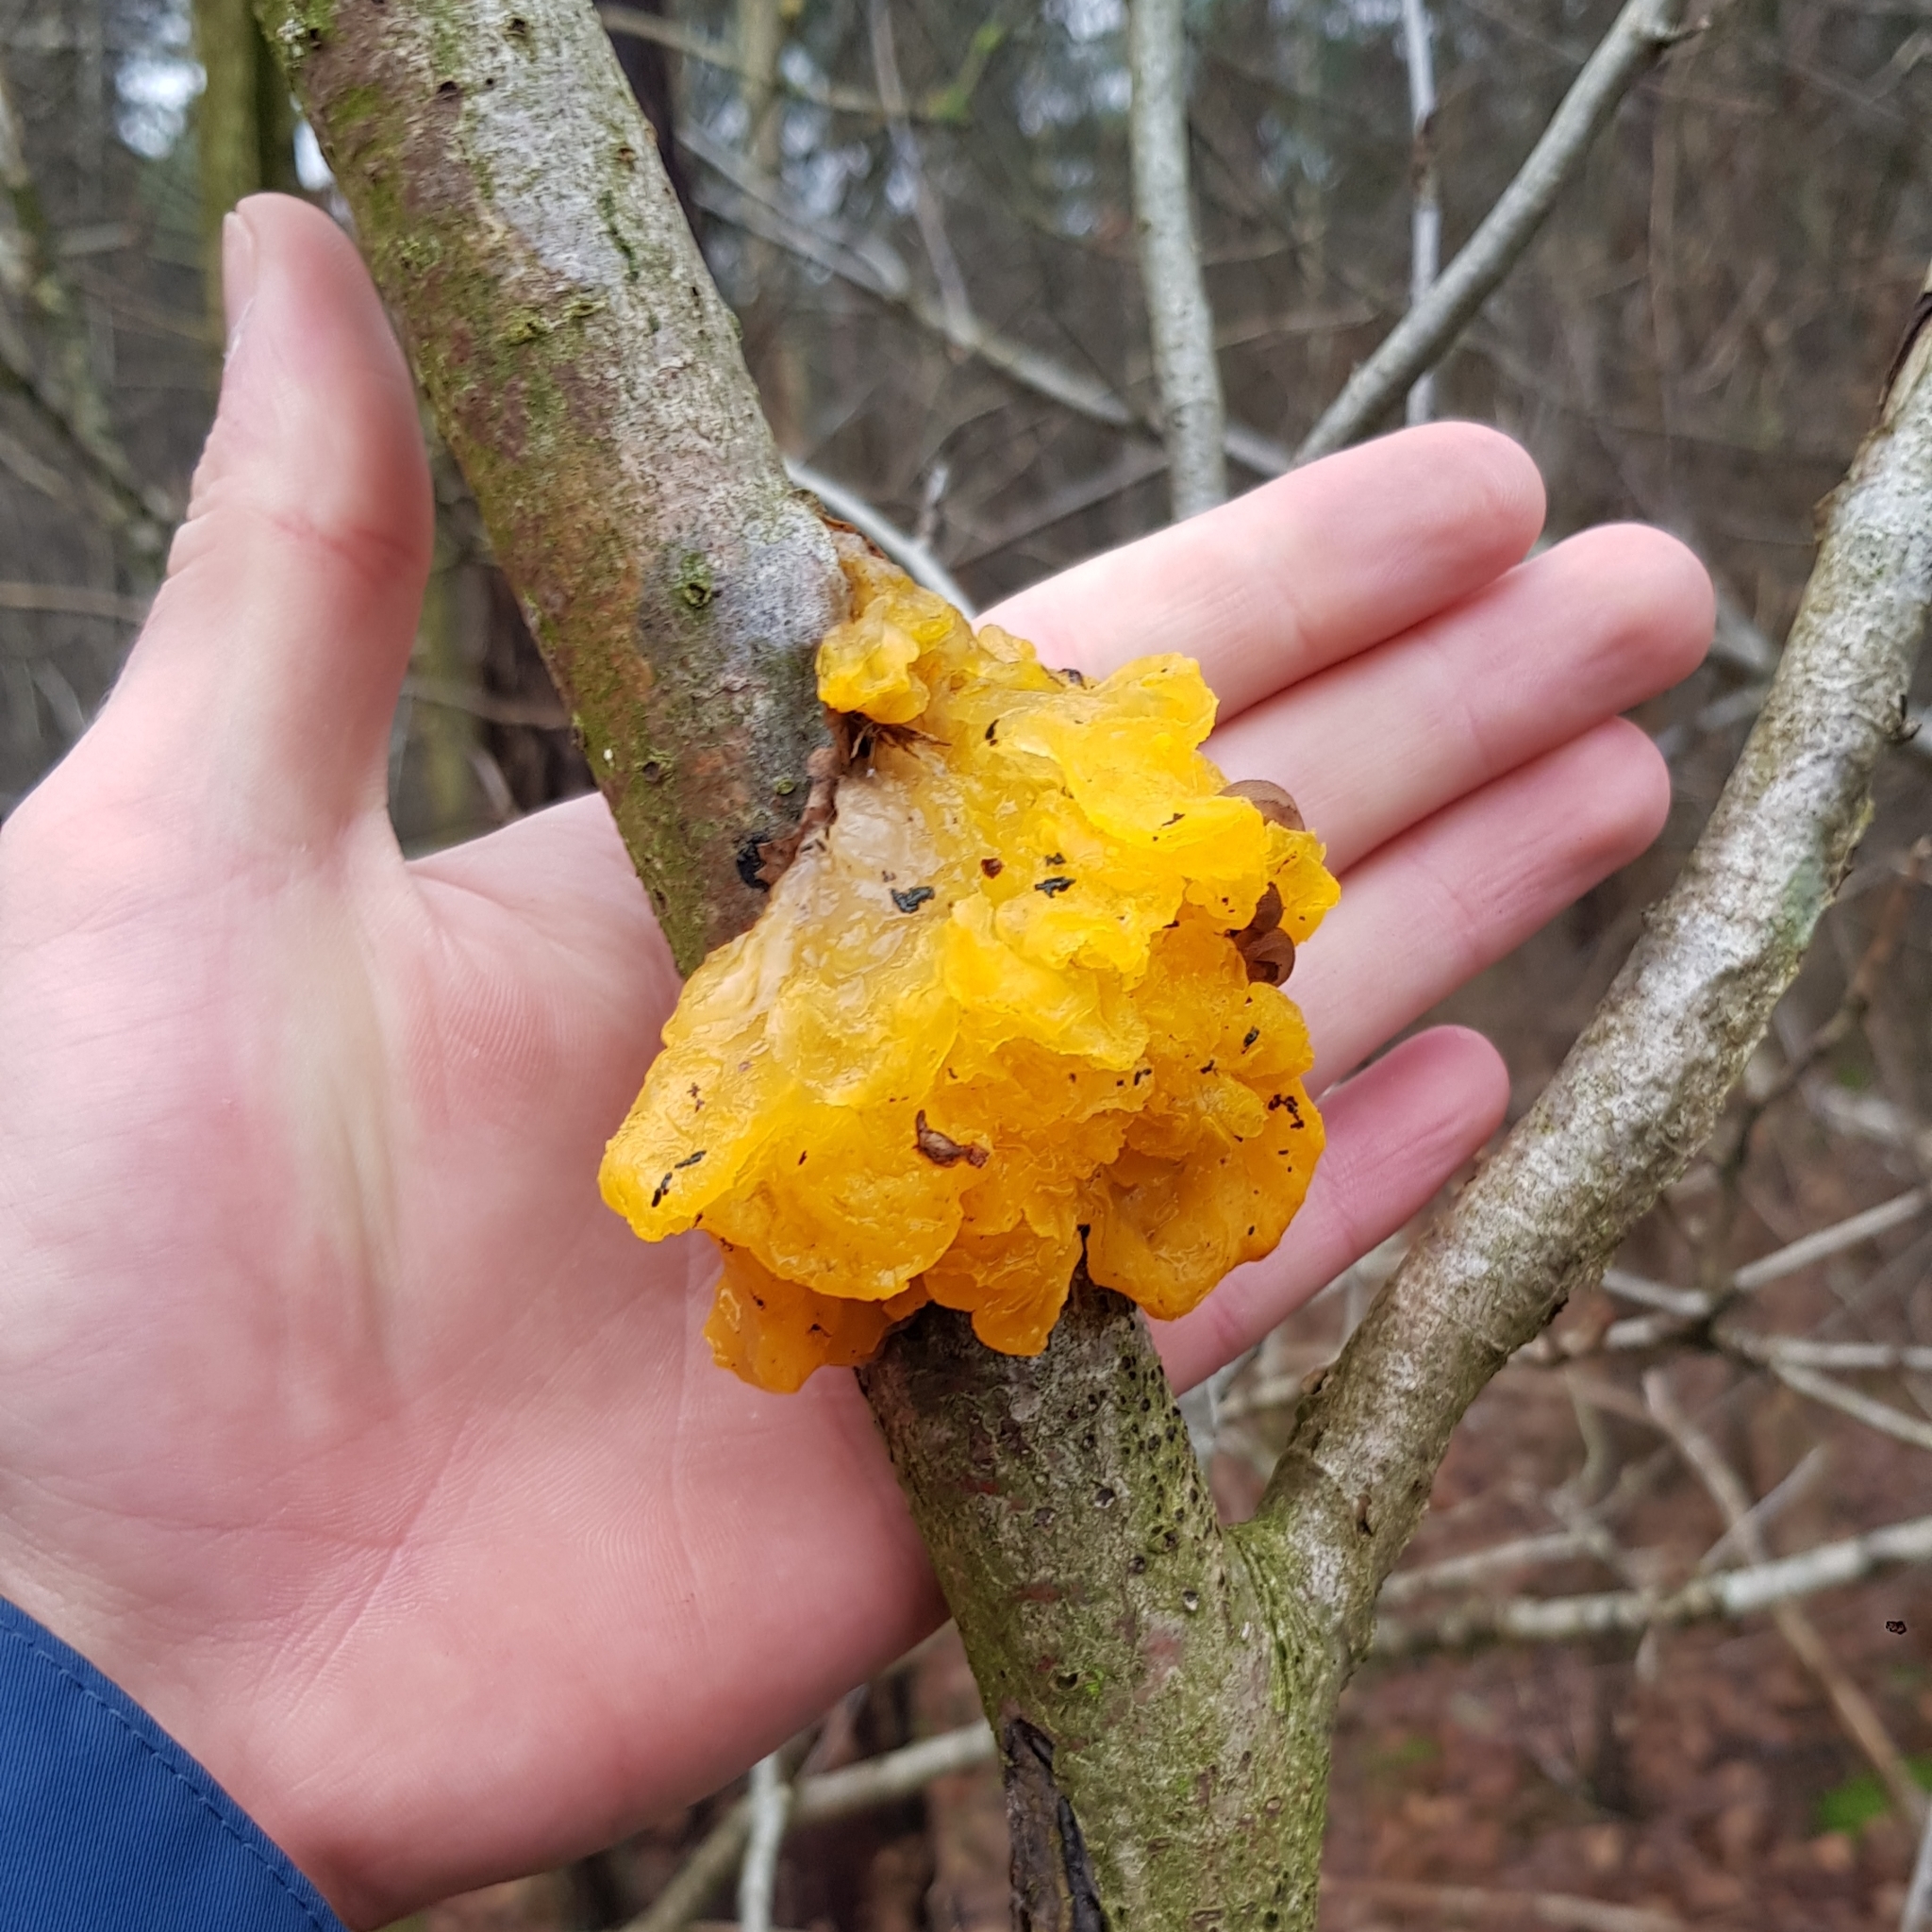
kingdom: Fungi
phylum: Basidiomycota
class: Tremellomycetes
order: Tremellales
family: Tremellaceae
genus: Tremella
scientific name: Tremella mesenterica
